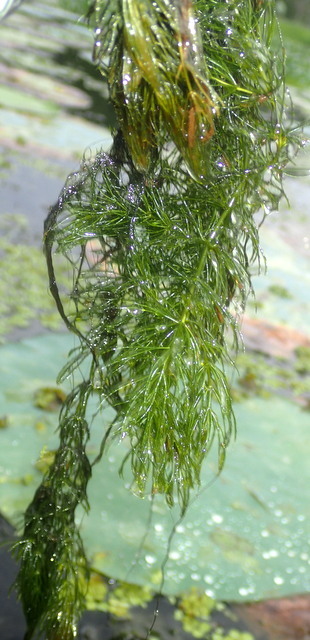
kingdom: Plantae
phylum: Tracheophyta
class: Magnoliopsida
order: Ceratophyllales
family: Ceratophyllaceae
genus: Ceratophyllum
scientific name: Ceratophyllum demersum
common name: Rigid hornwort
